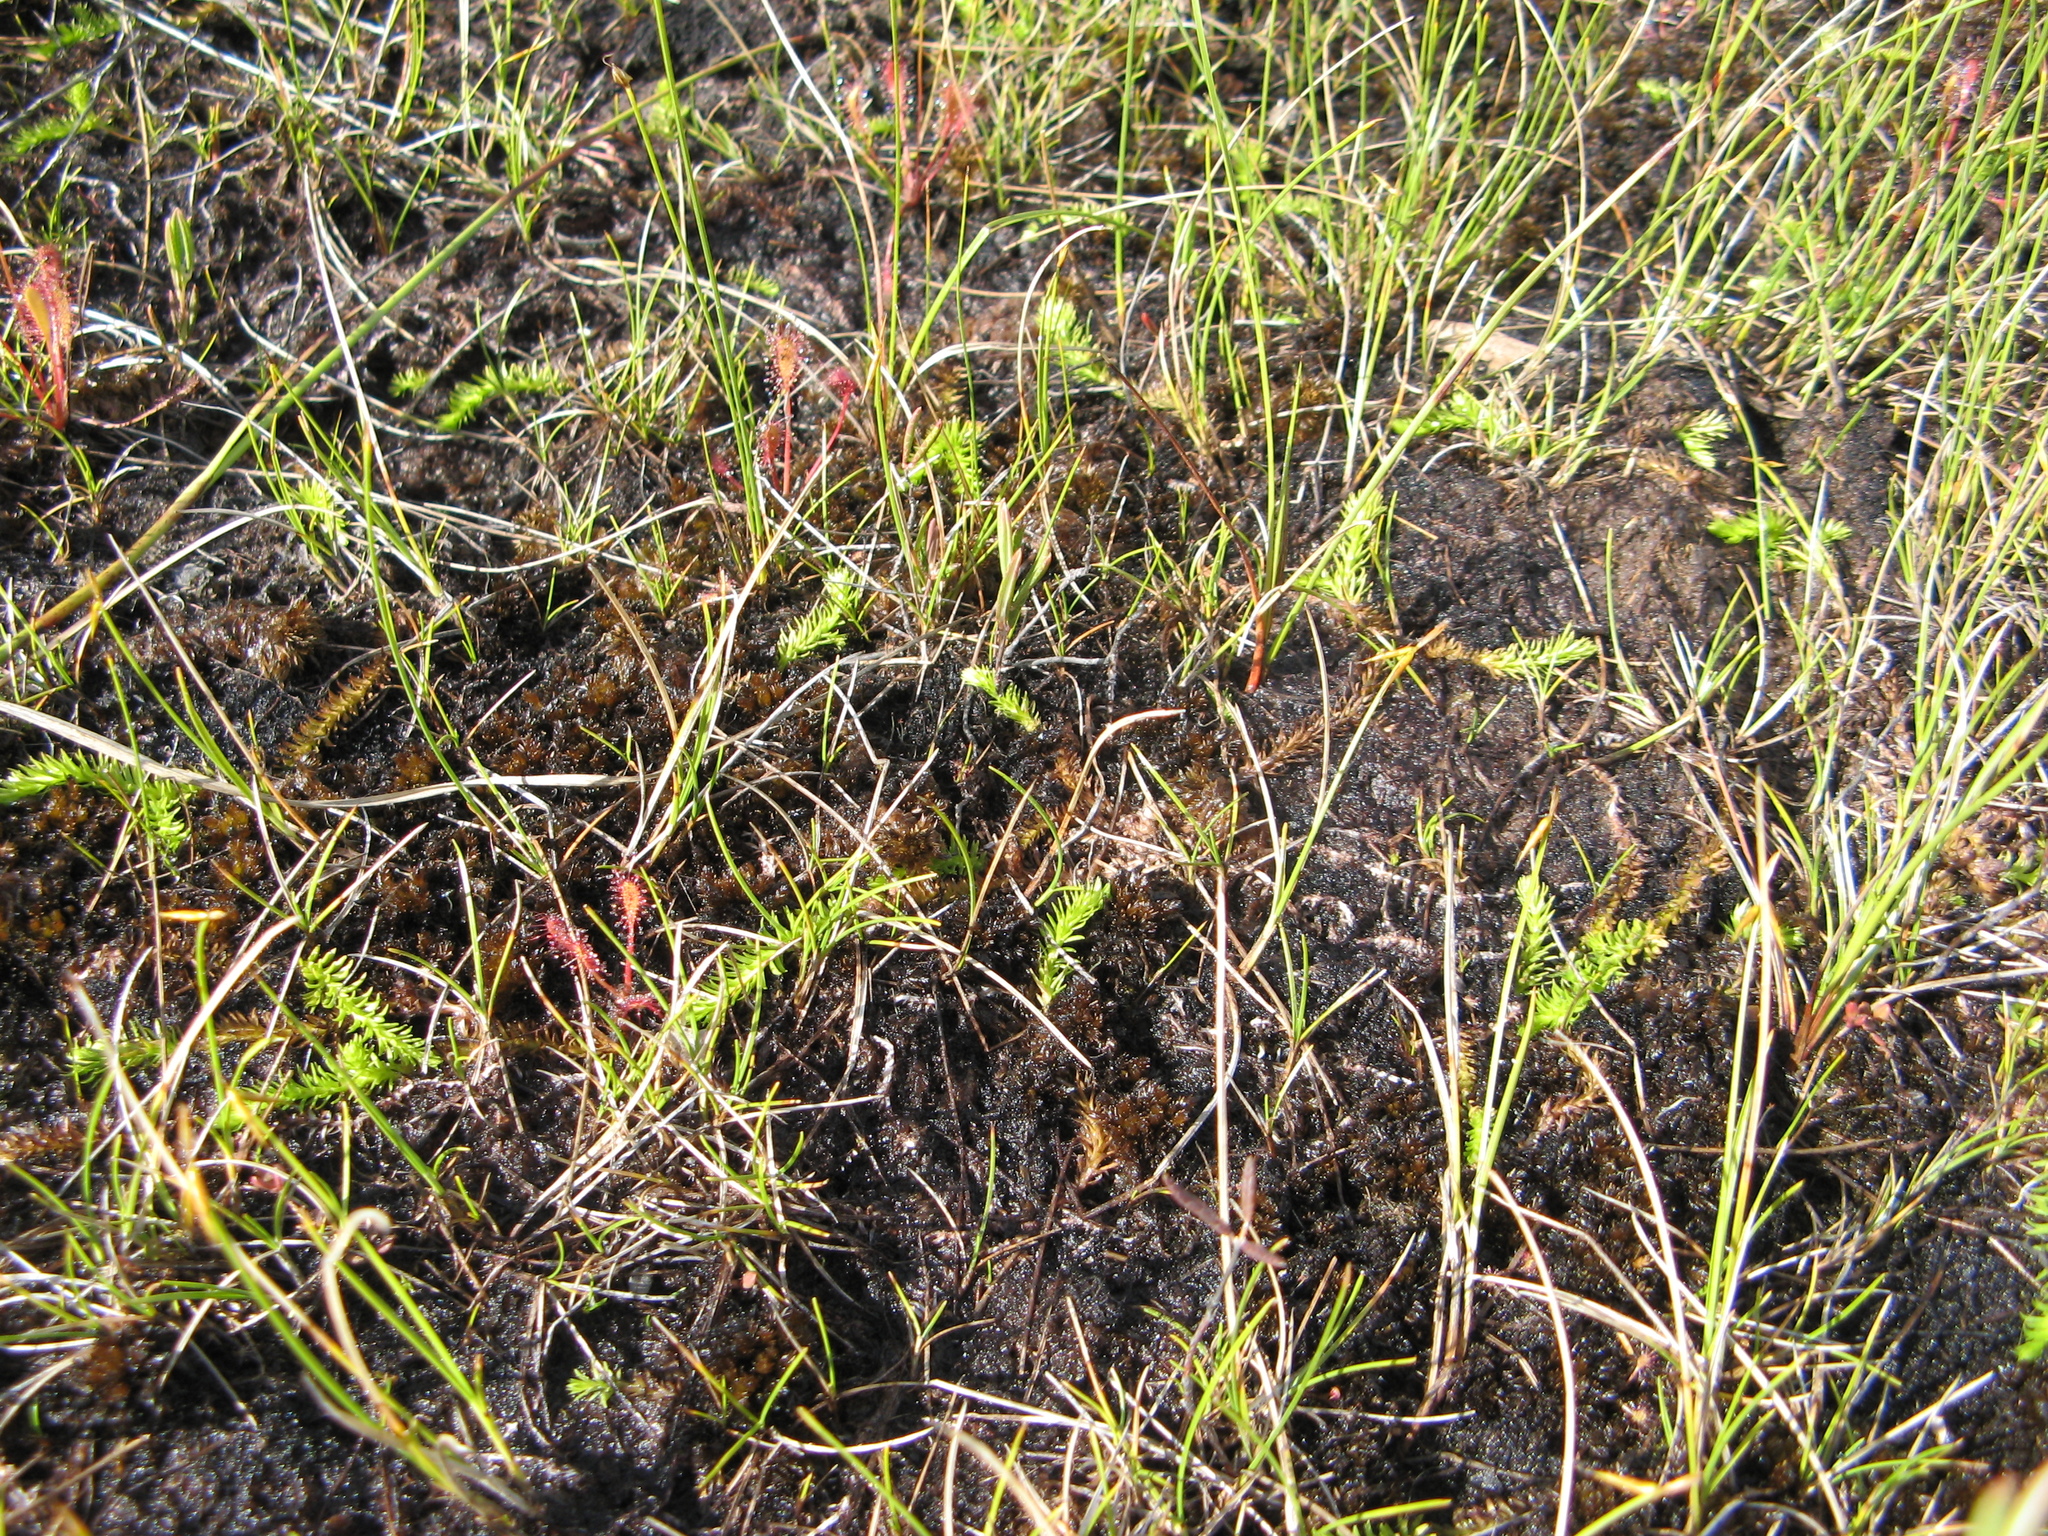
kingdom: Plantae
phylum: Tracheophyta
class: Lycopodiopsida
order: Lycopodiales
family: Lycopodiaceae
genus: Lycopodiella
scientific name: Lycopodiella inundata
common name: Marsh clubmoss
